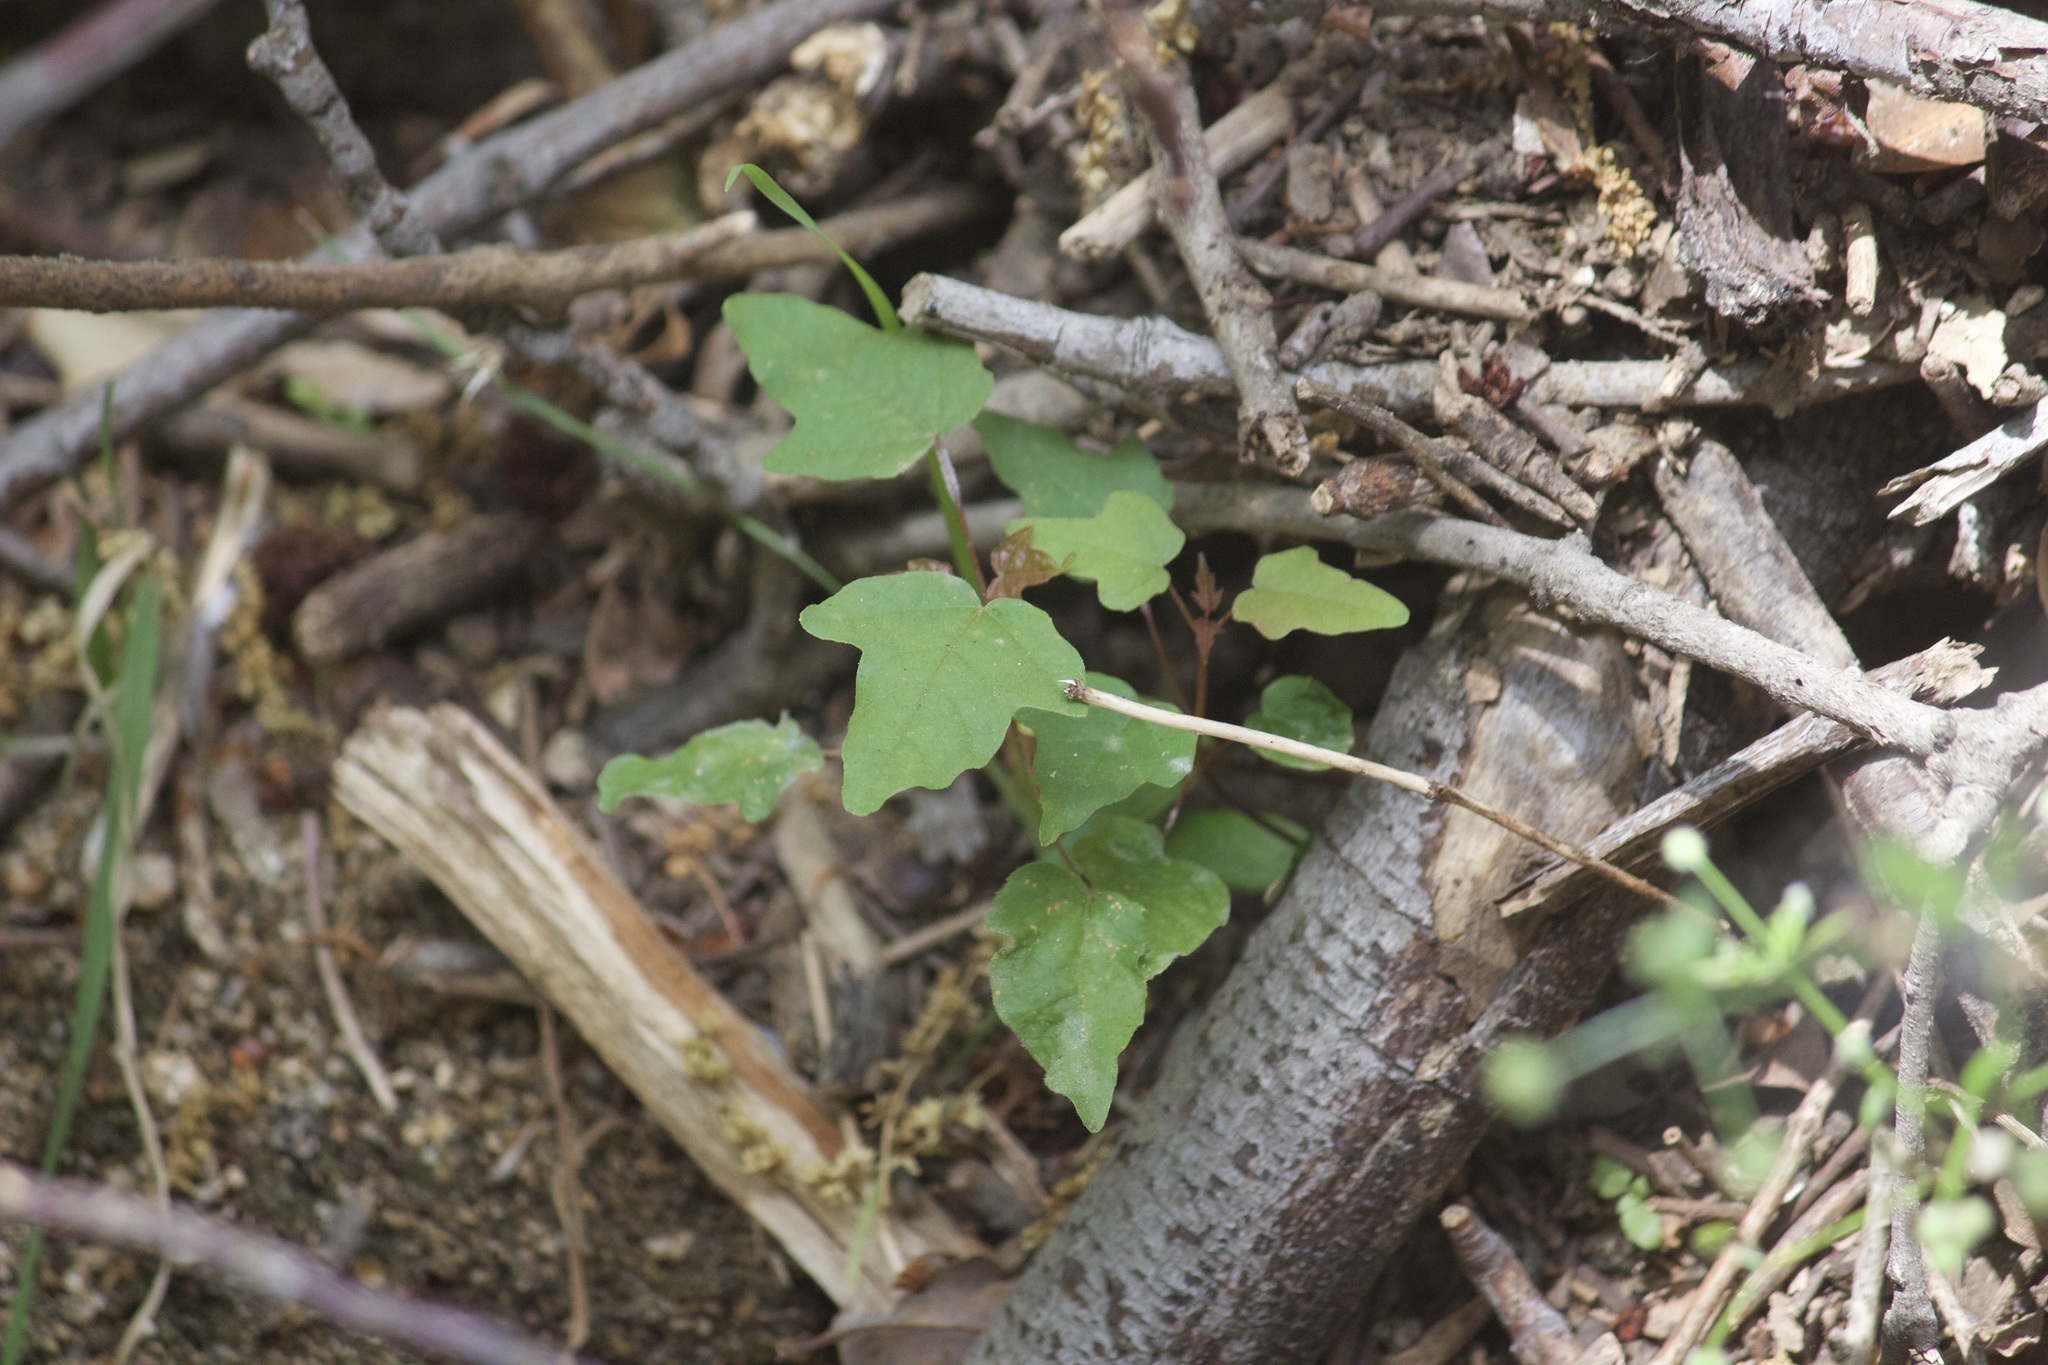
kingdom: Plantae
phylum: Tracheophyta
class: Magnoliopsida
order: Sapindales
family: Sapindaceae
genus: Acer
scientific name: Acer macrophyllum
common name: Oregon maple
